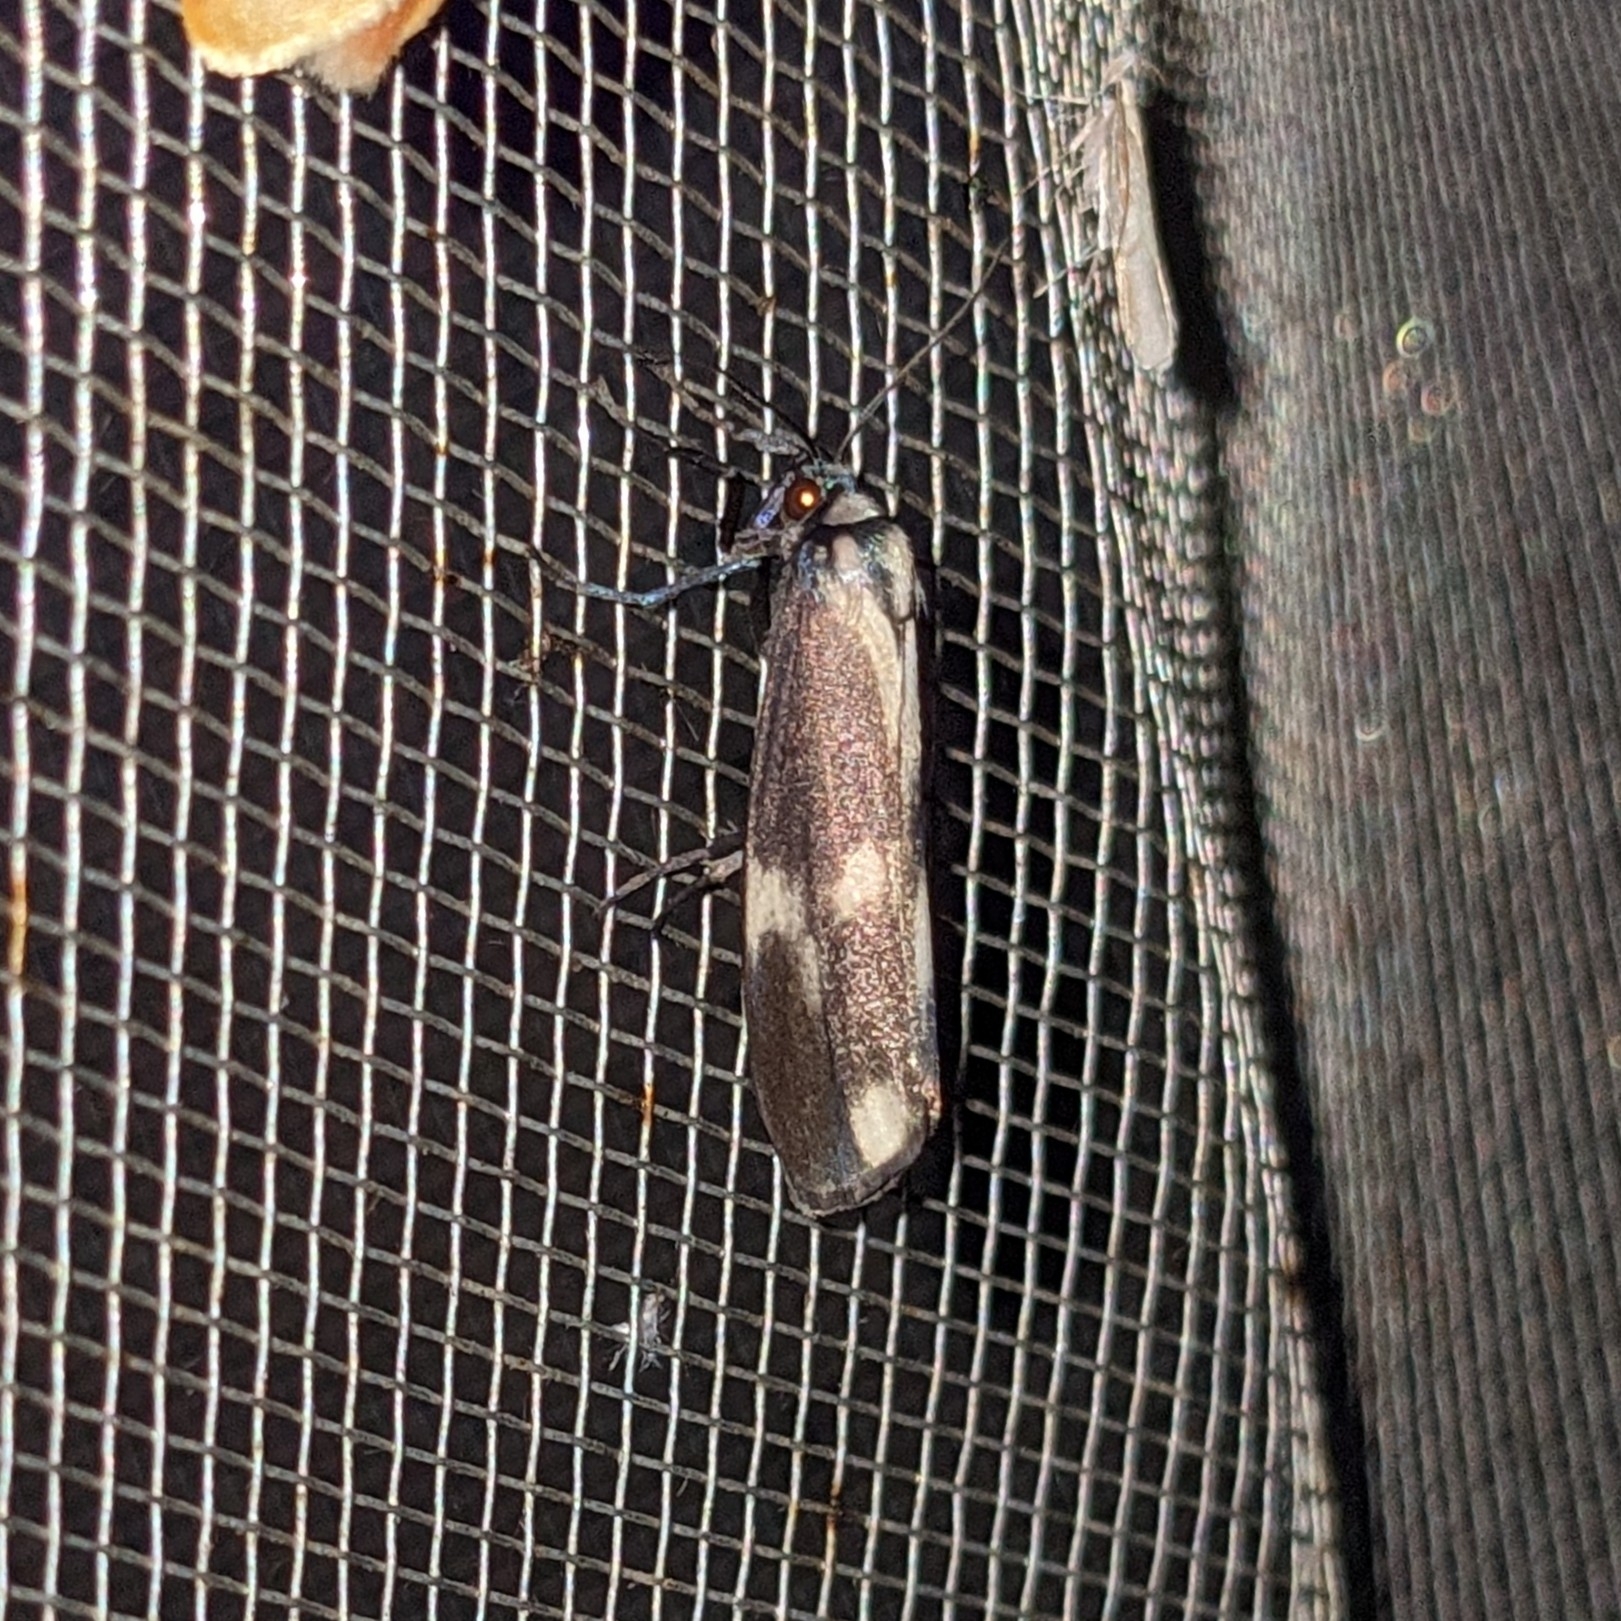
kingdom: Animalia
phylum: Arthropoda
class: Insecta
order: Lepidoptera
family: Erebidae
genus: Areva
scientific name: Areva trigemmis
